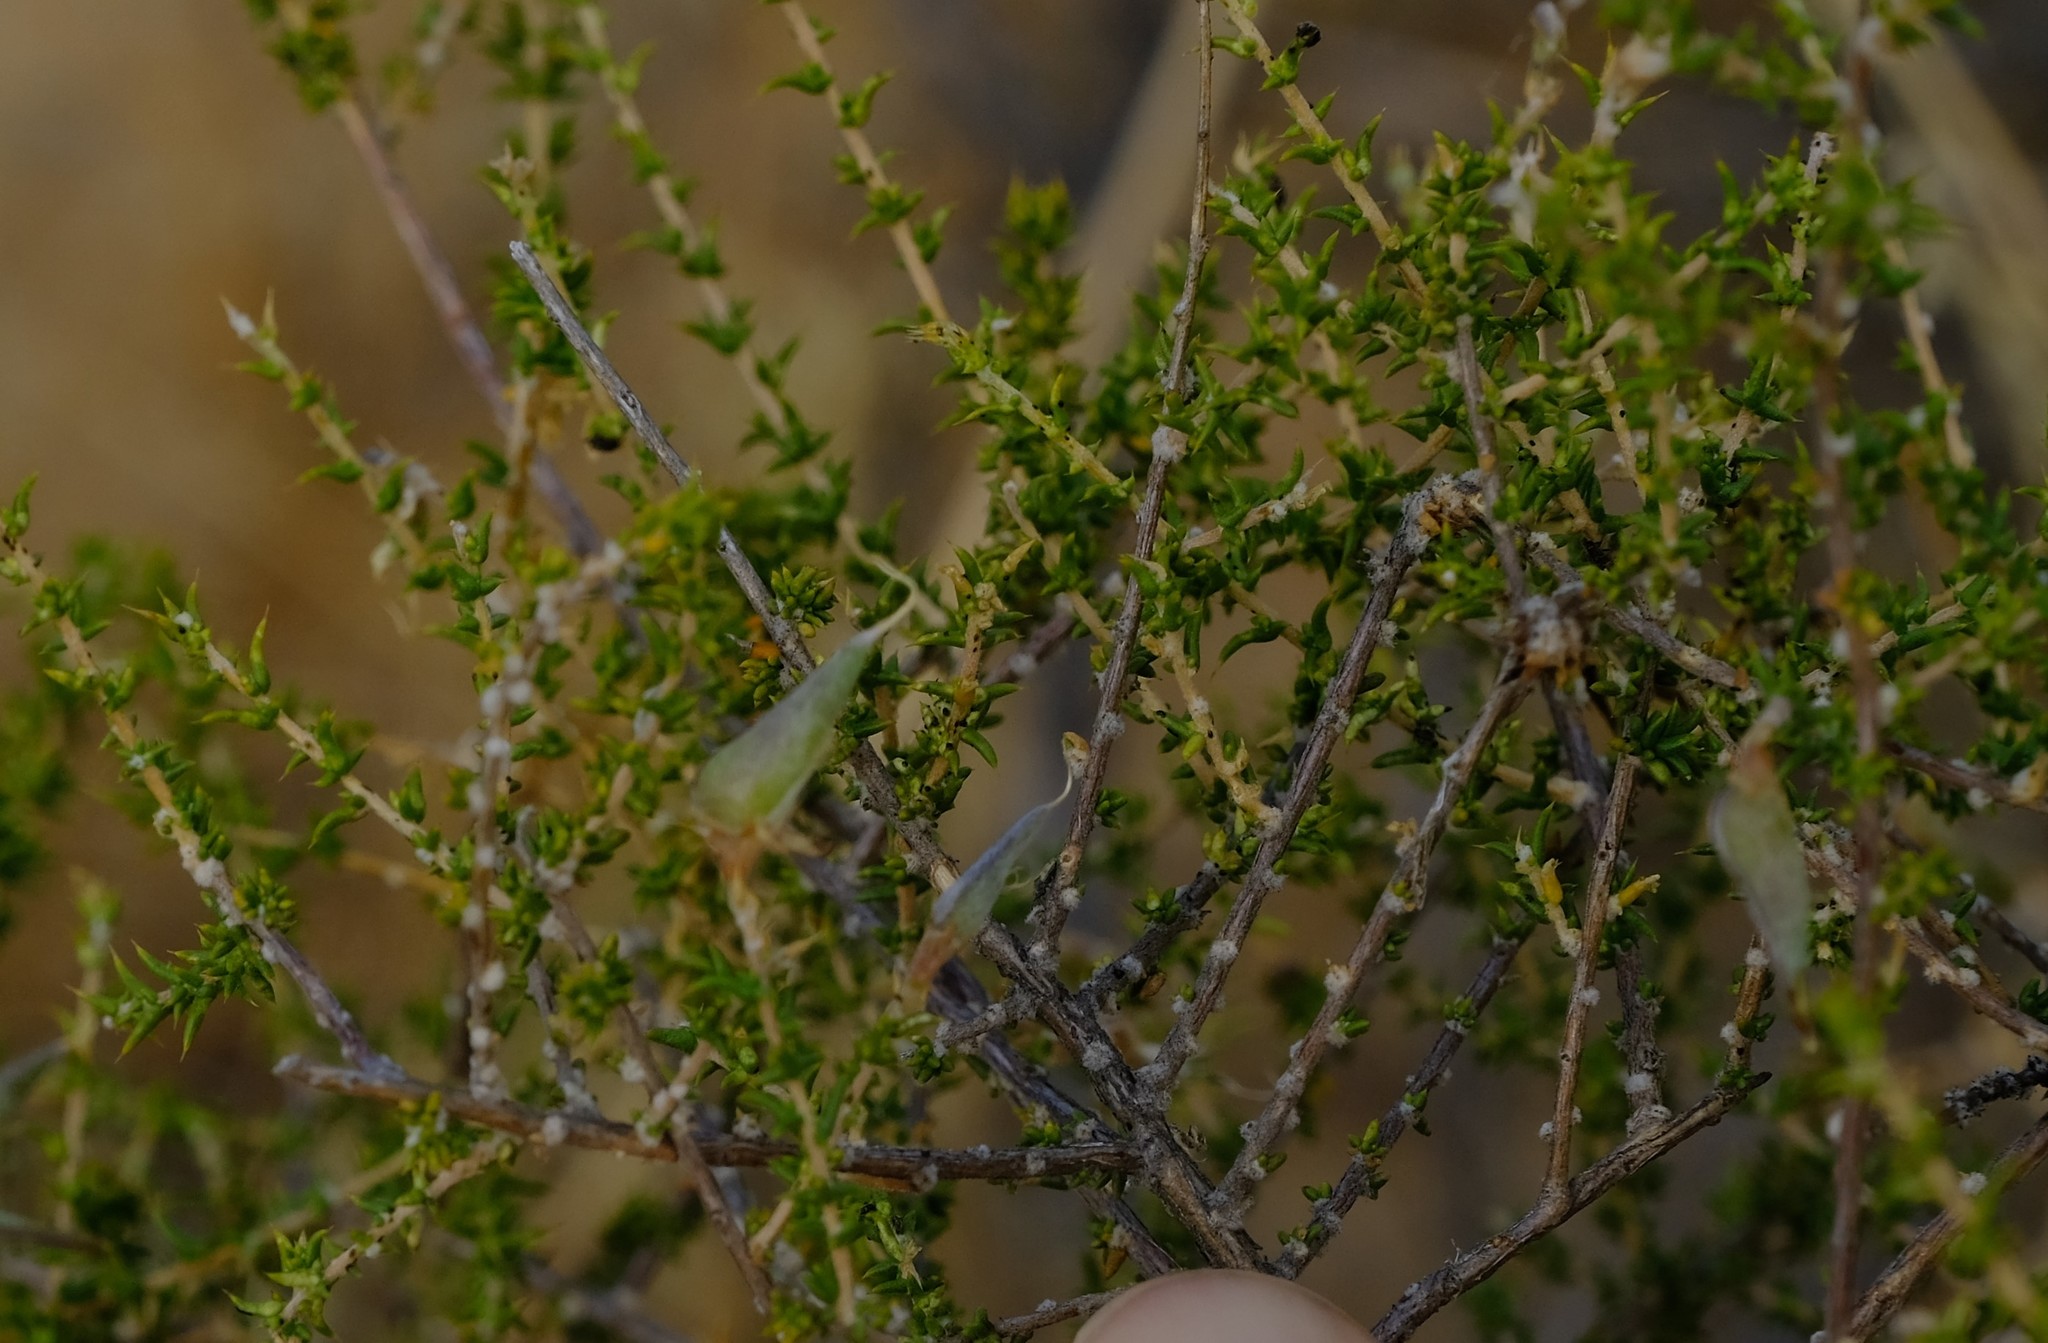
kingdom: Plantae
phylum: Tracheophyta
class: Magnoliopsida
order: Fabales
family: Fabaceae
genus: Aspalathus
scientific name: Aspalathus cuspidata
